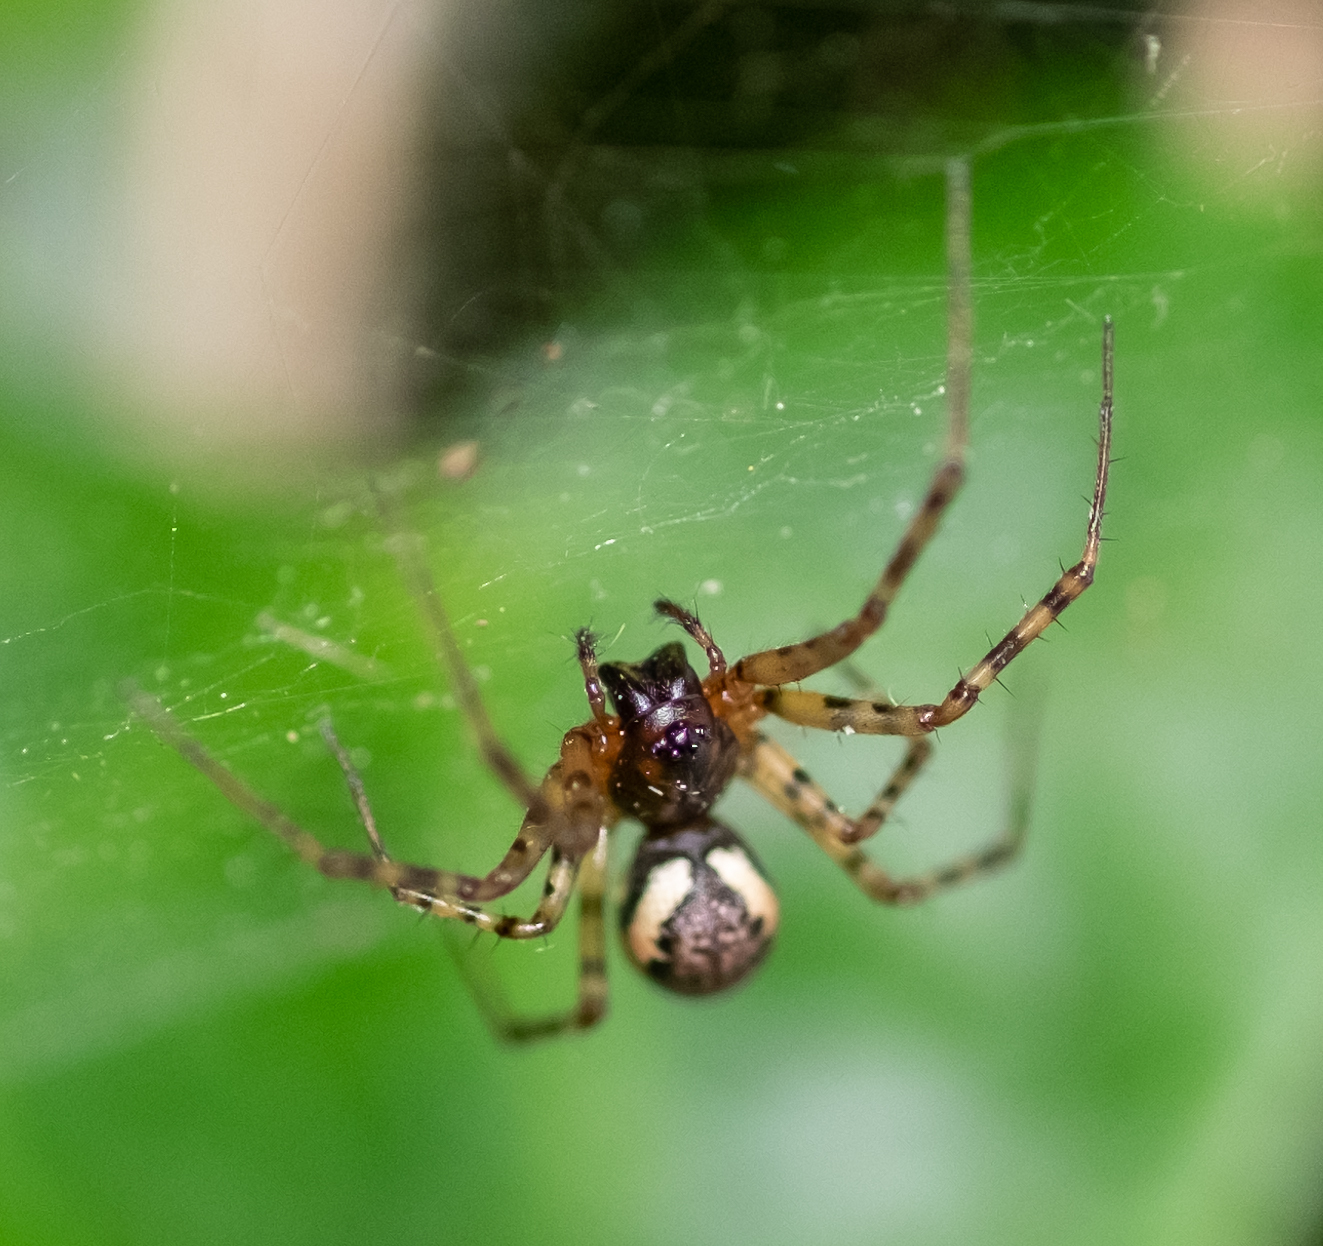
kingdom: Animalia
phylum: Arthropoda
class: Arachnida
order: Araneae
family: Linyphiidae
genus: Neriene
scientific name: Neriene montana
